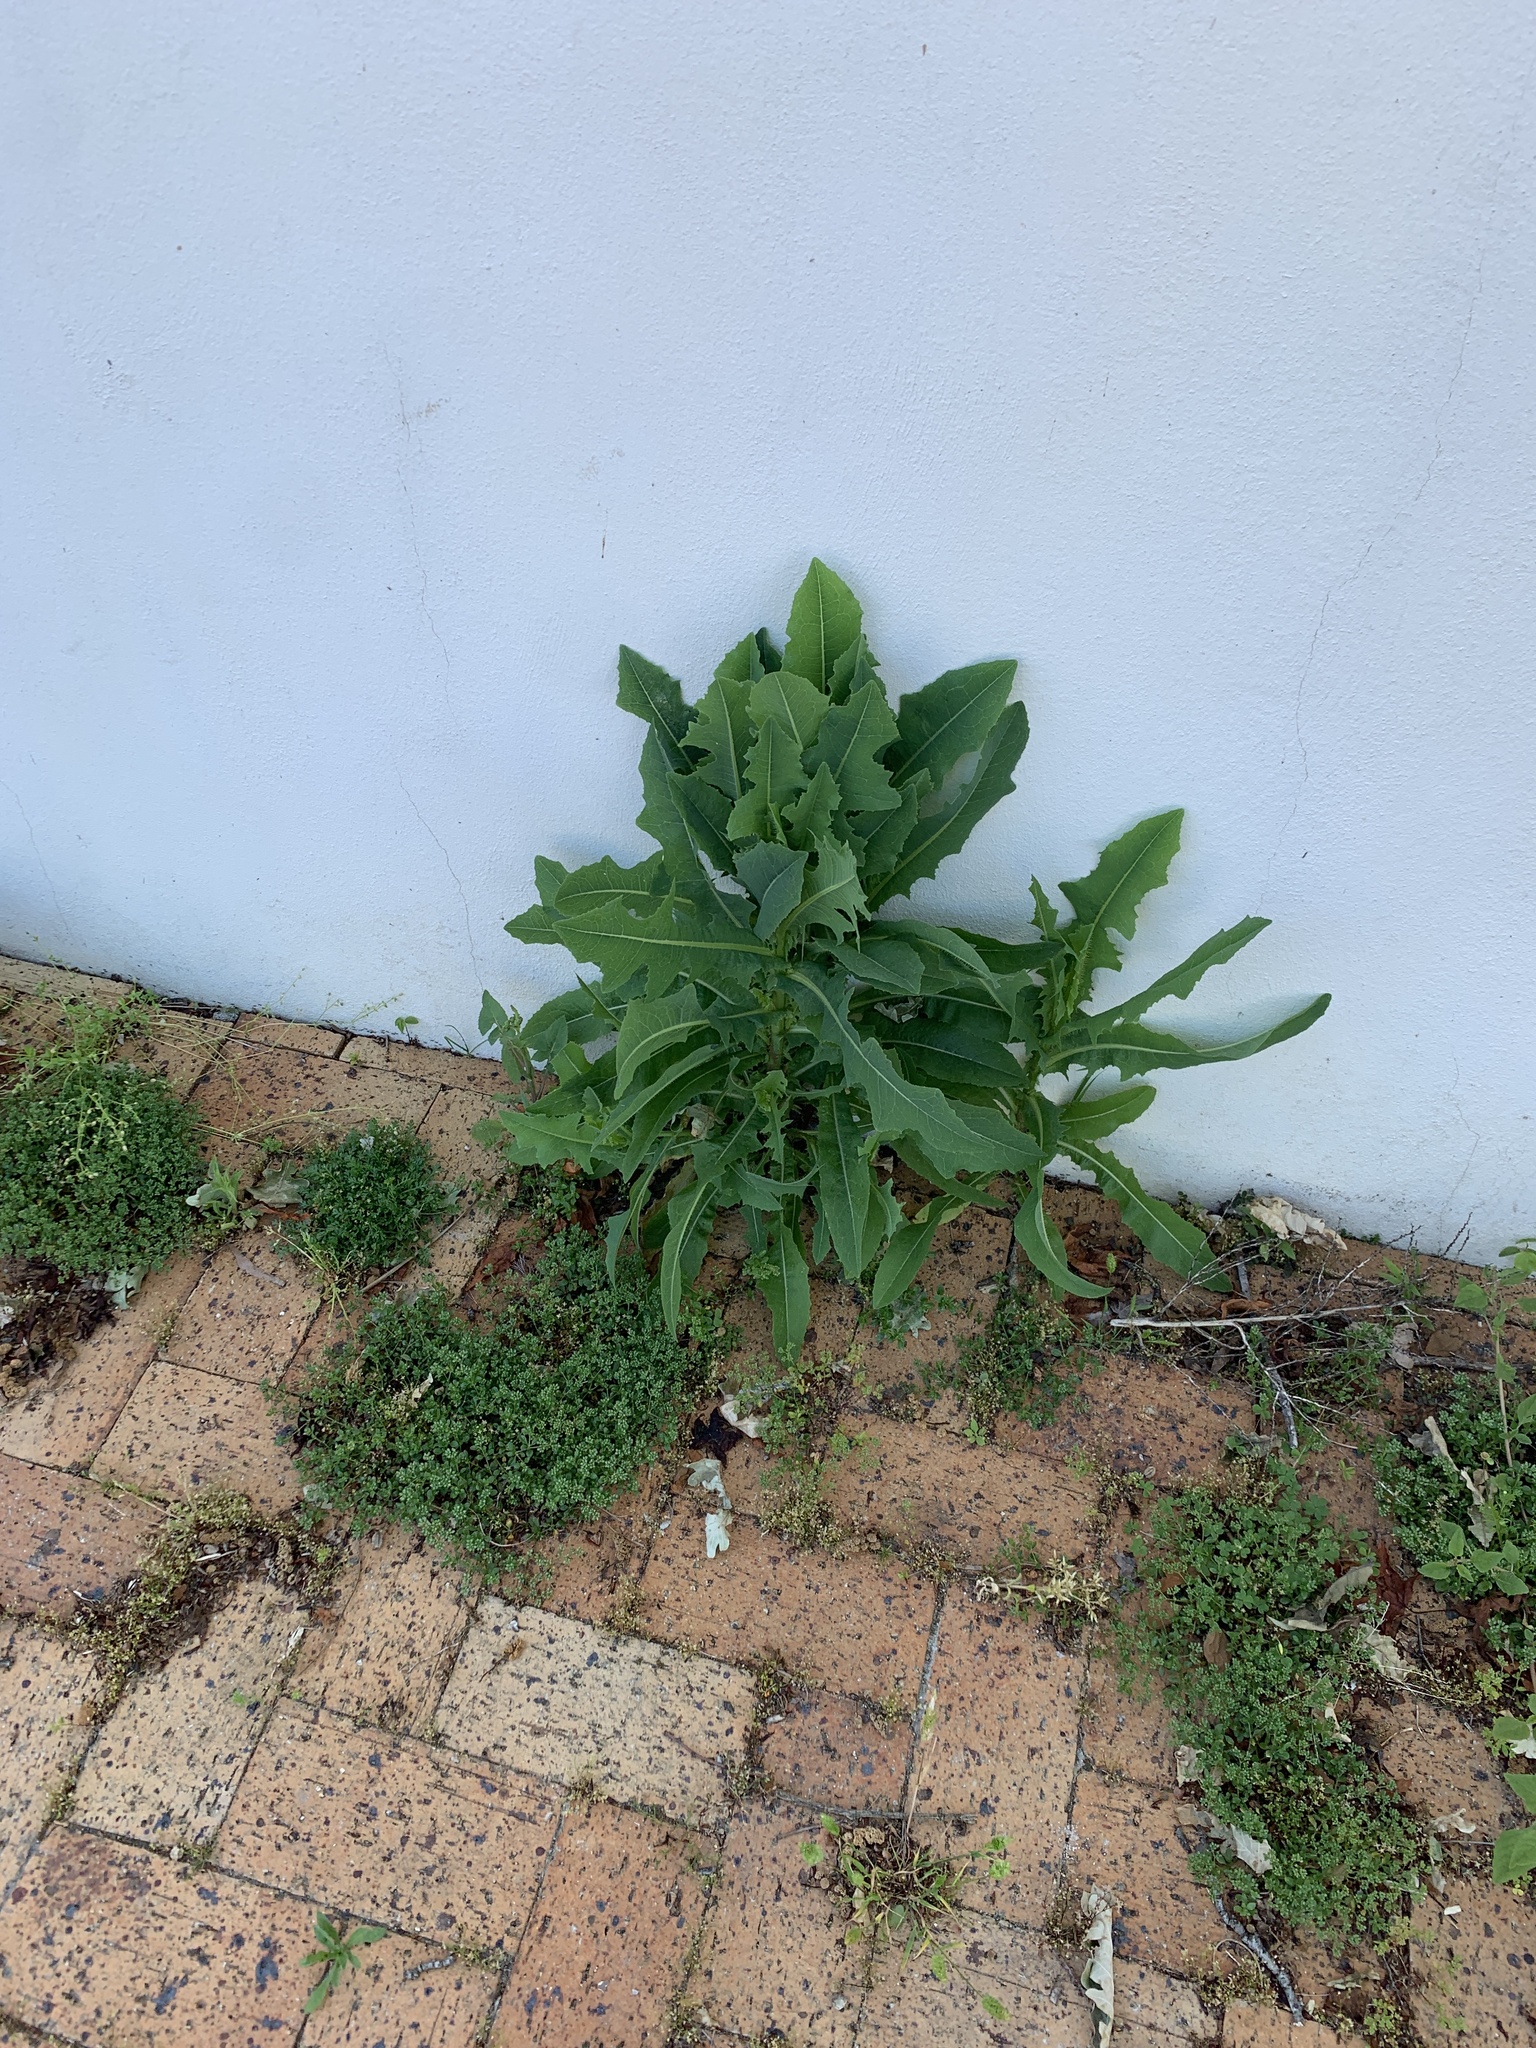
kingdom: Plantae
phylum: Tracheophyta
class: Magnoliopsida
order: Asterales
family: Asteraceae
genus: Lactuca
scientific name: Lactuca serriola
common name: Prickly lettuce
